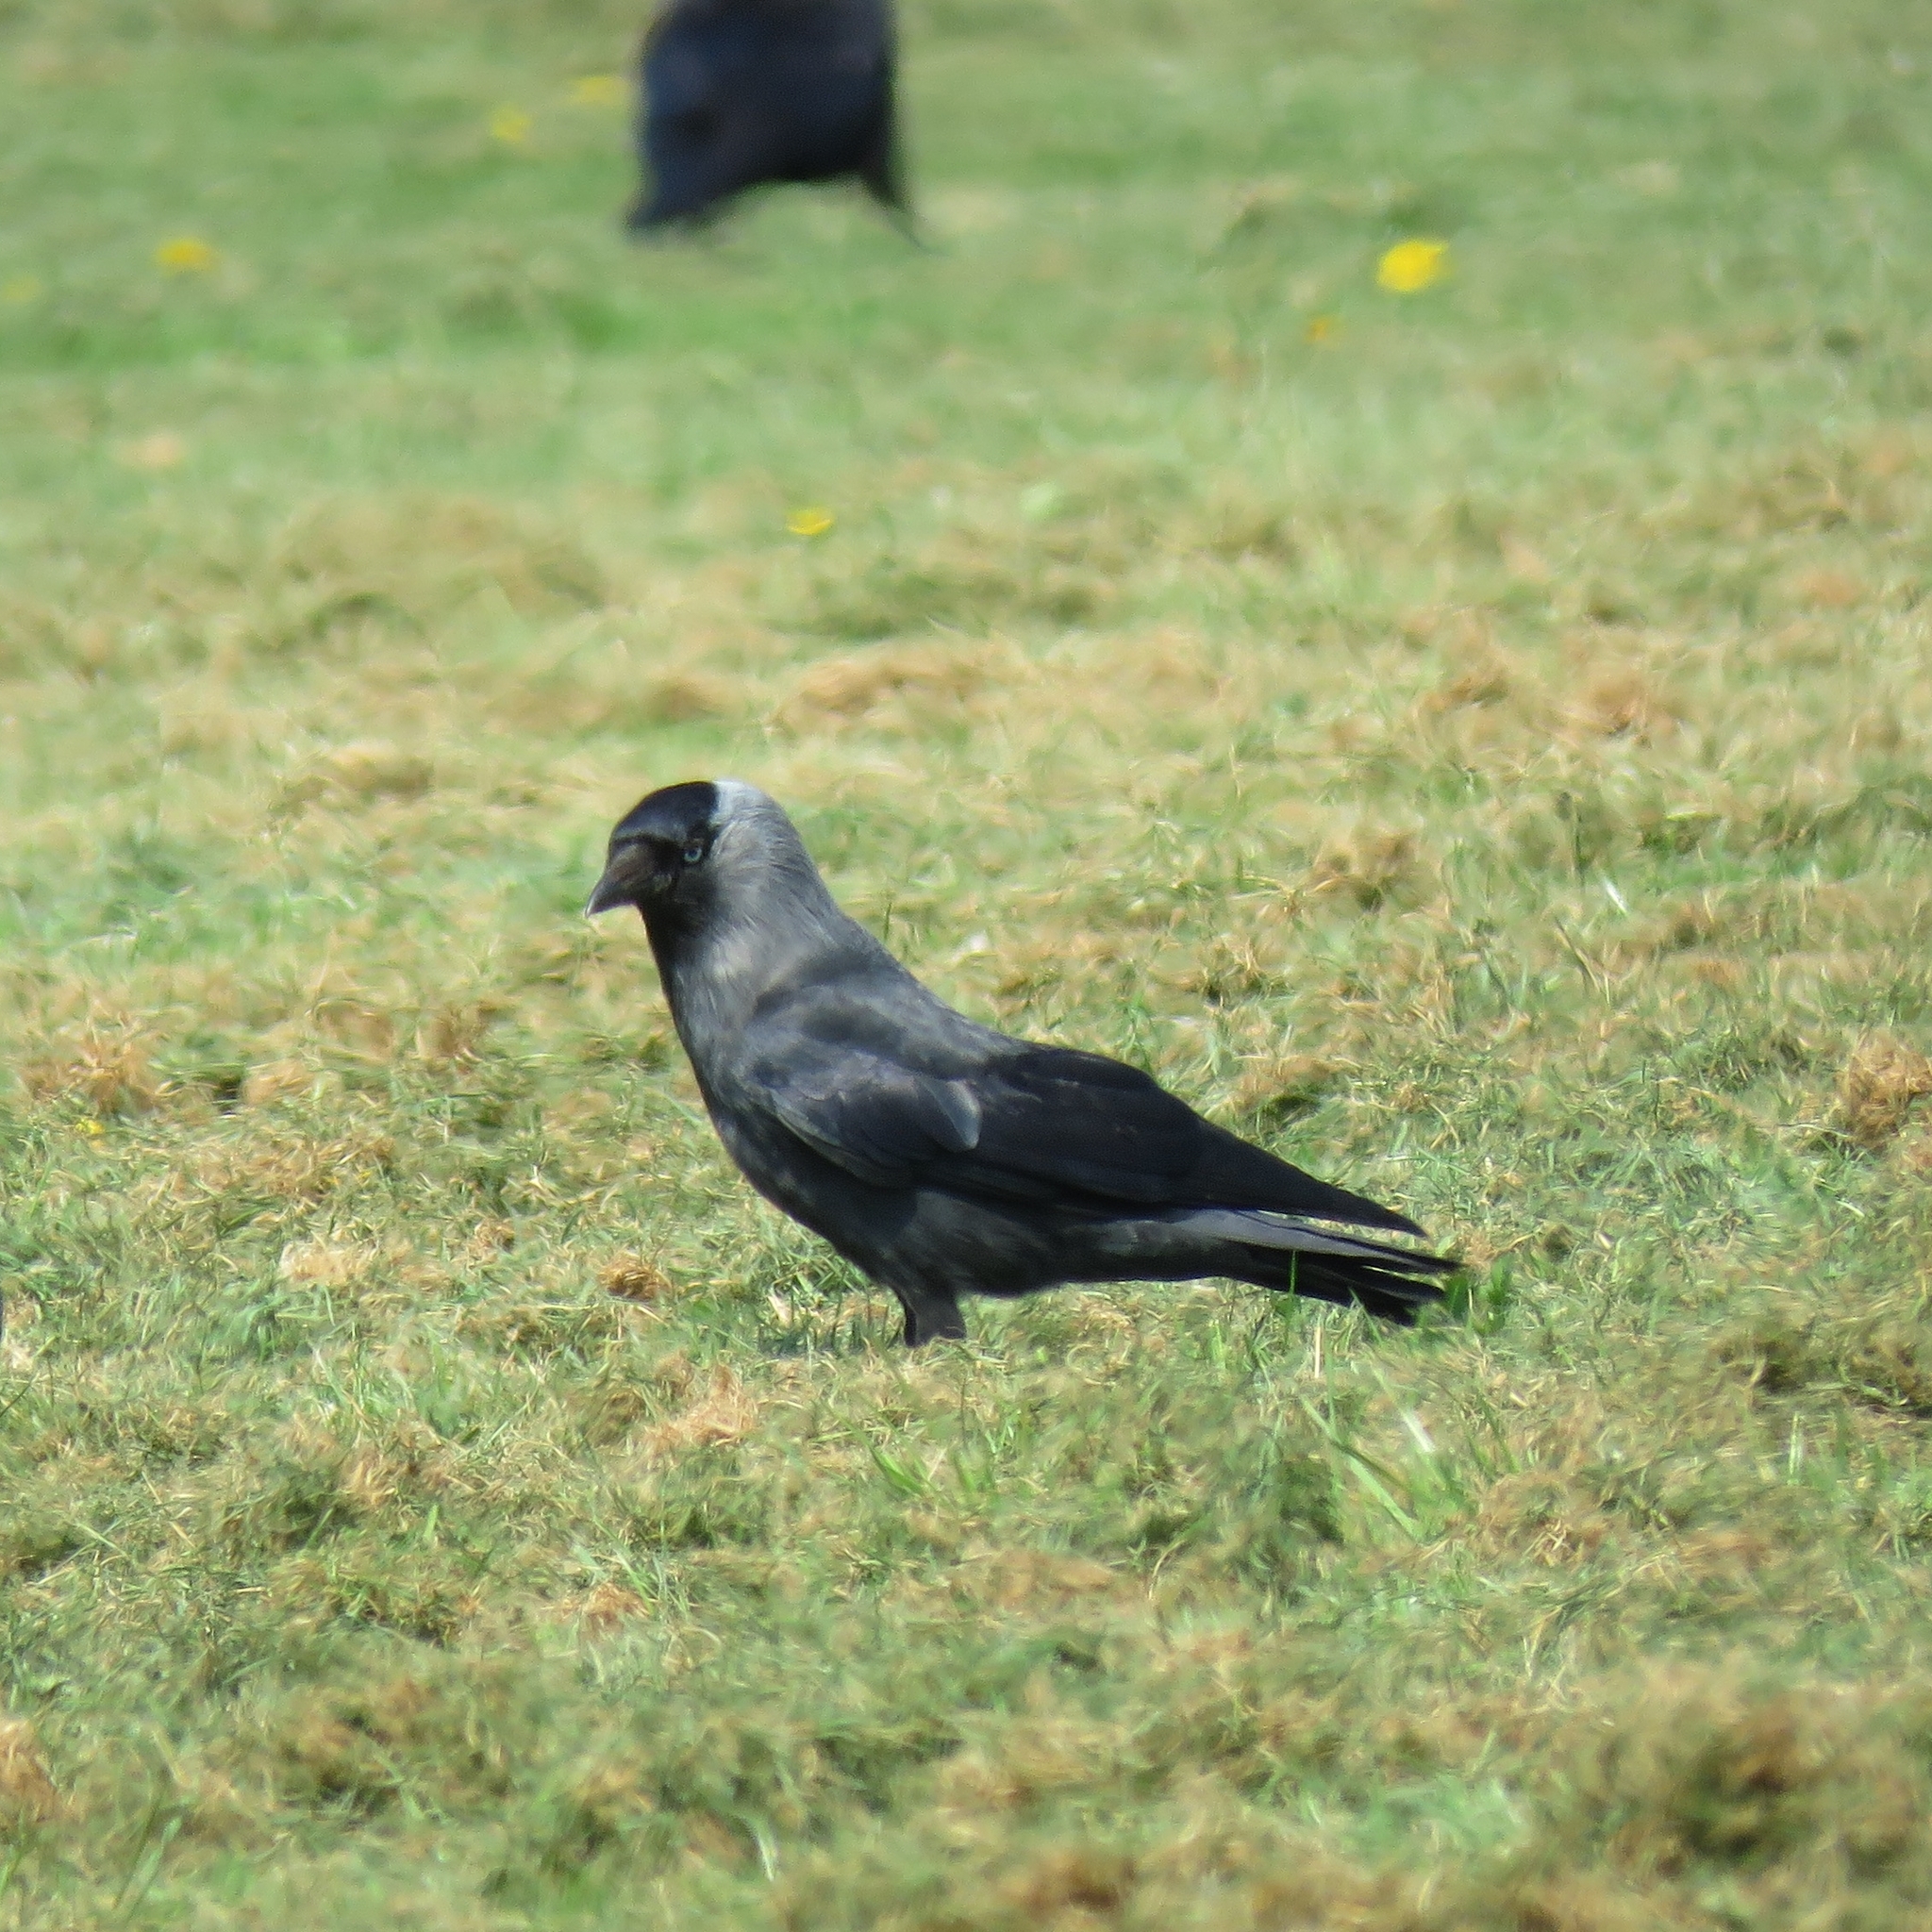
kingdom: Animalia
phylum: Chordata
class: Aves
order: Passeriformes
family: Corvidae
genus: Coloeus
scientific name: Coloeus monedula
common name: Western jackdaw
